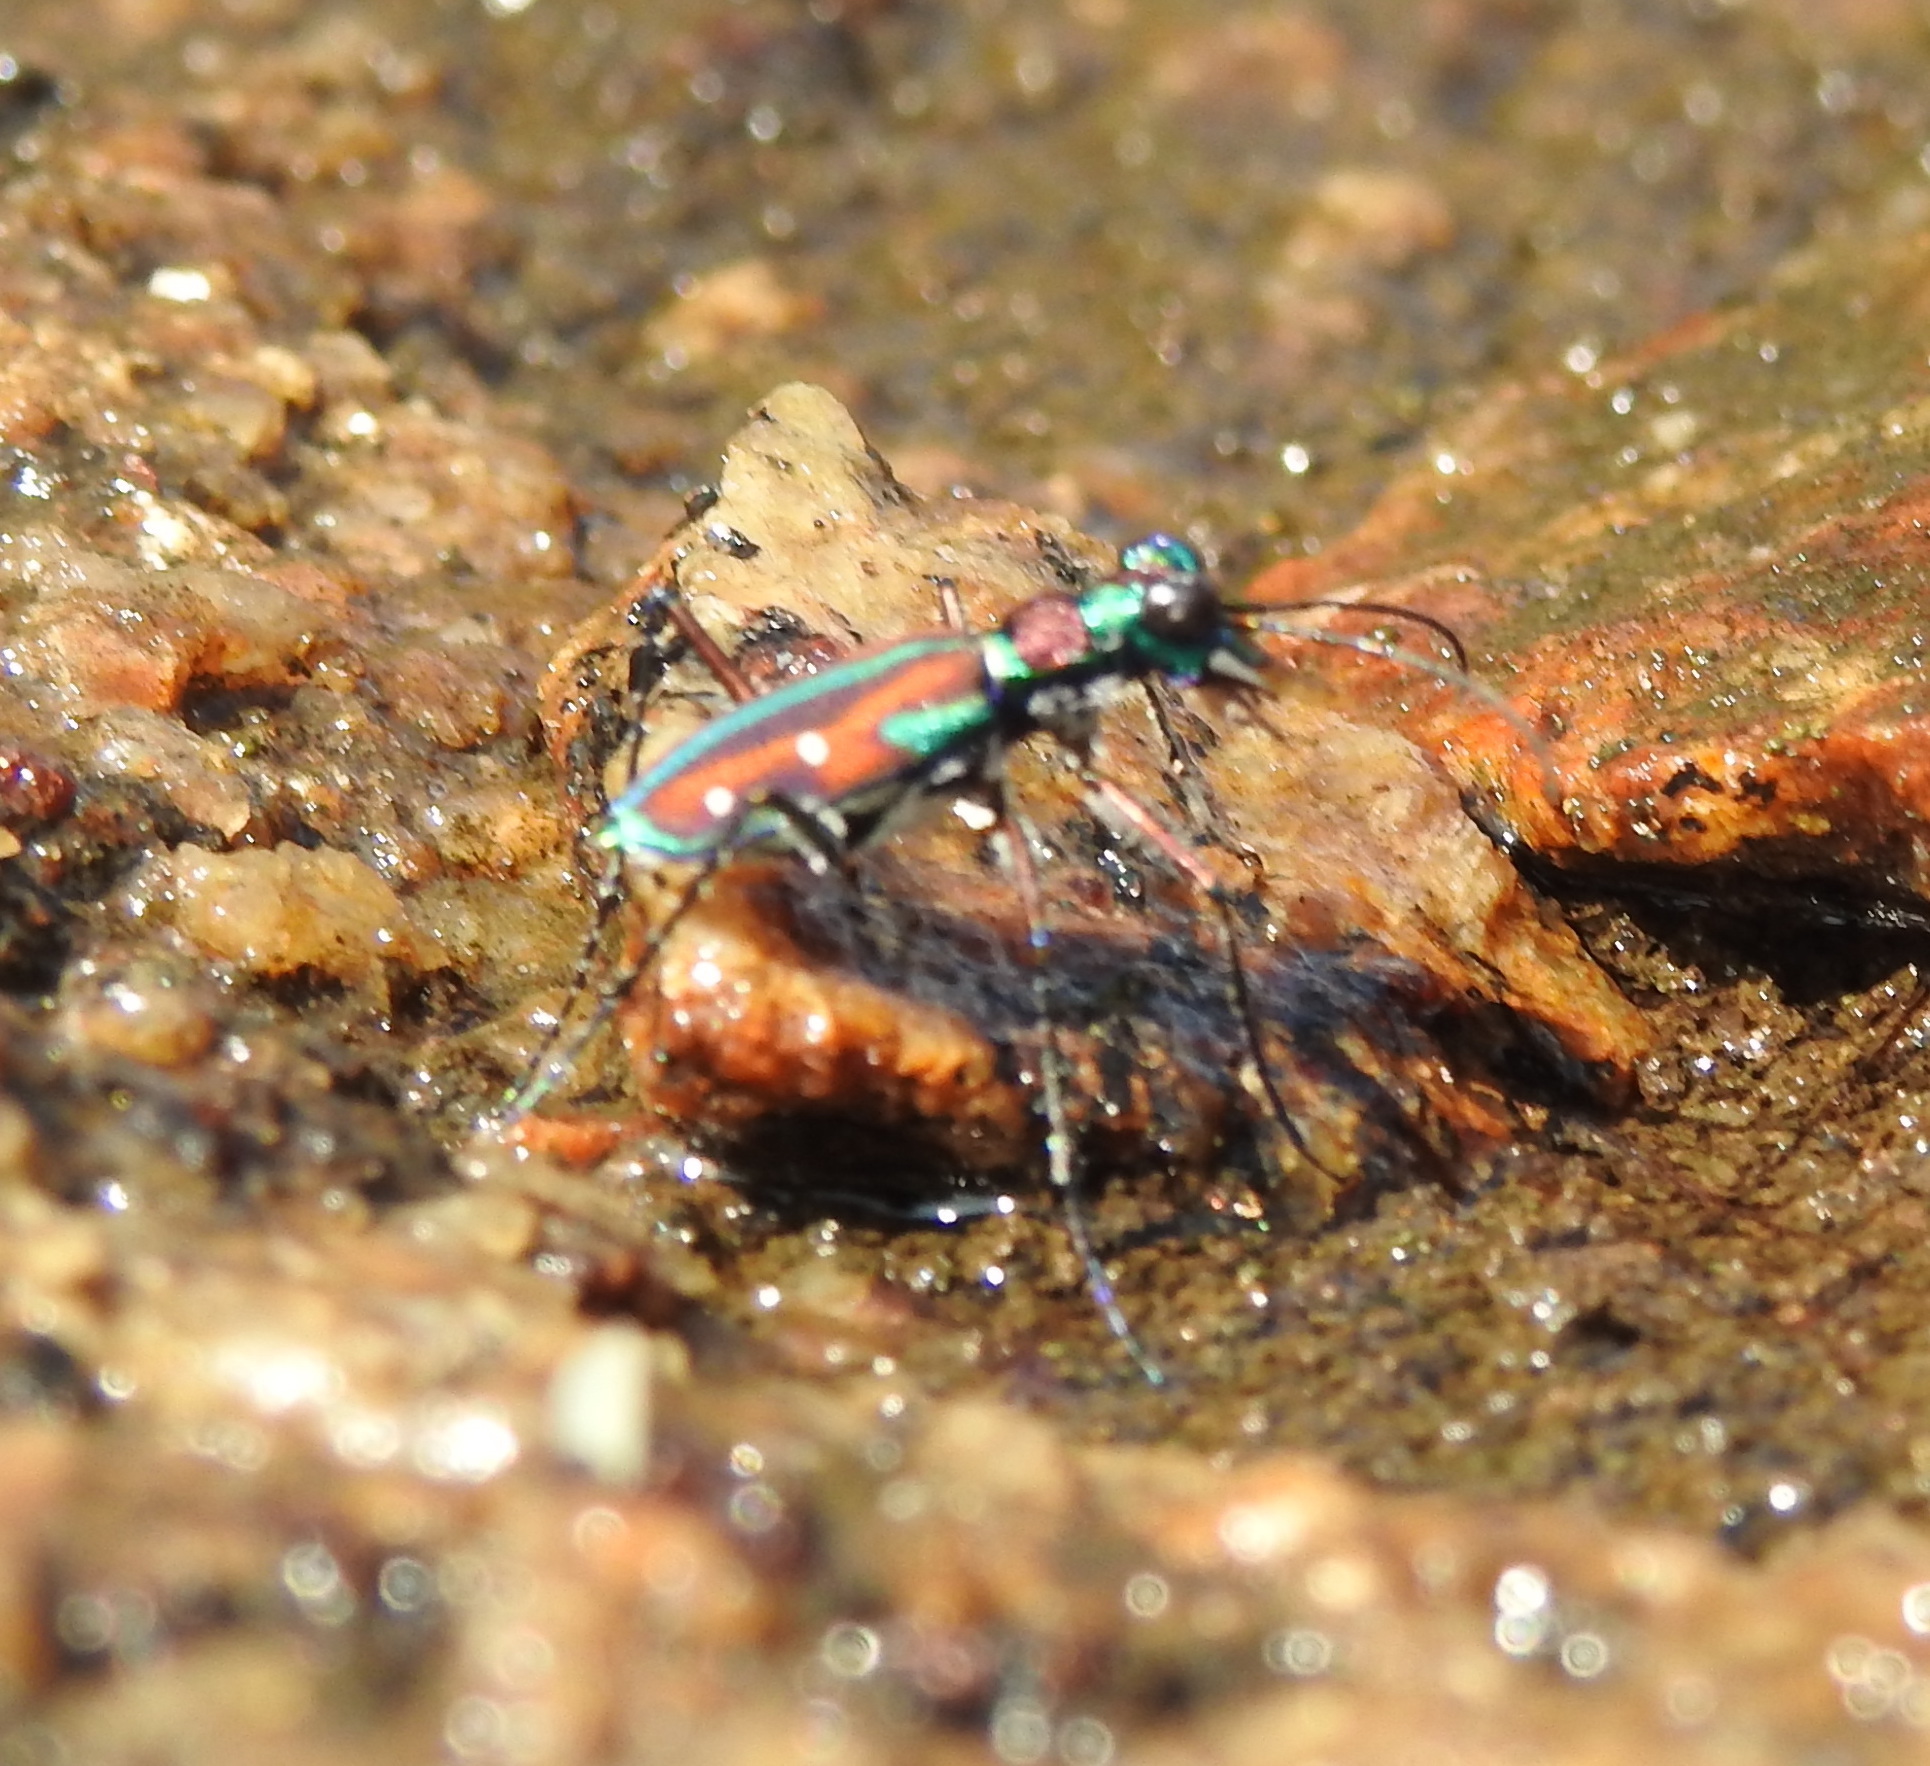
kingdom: Animalia
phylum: Arthropoda
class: Insecta
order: Coleoptera
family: Carabidae
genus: Jansenia
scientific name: Jansenia rugosiceps
